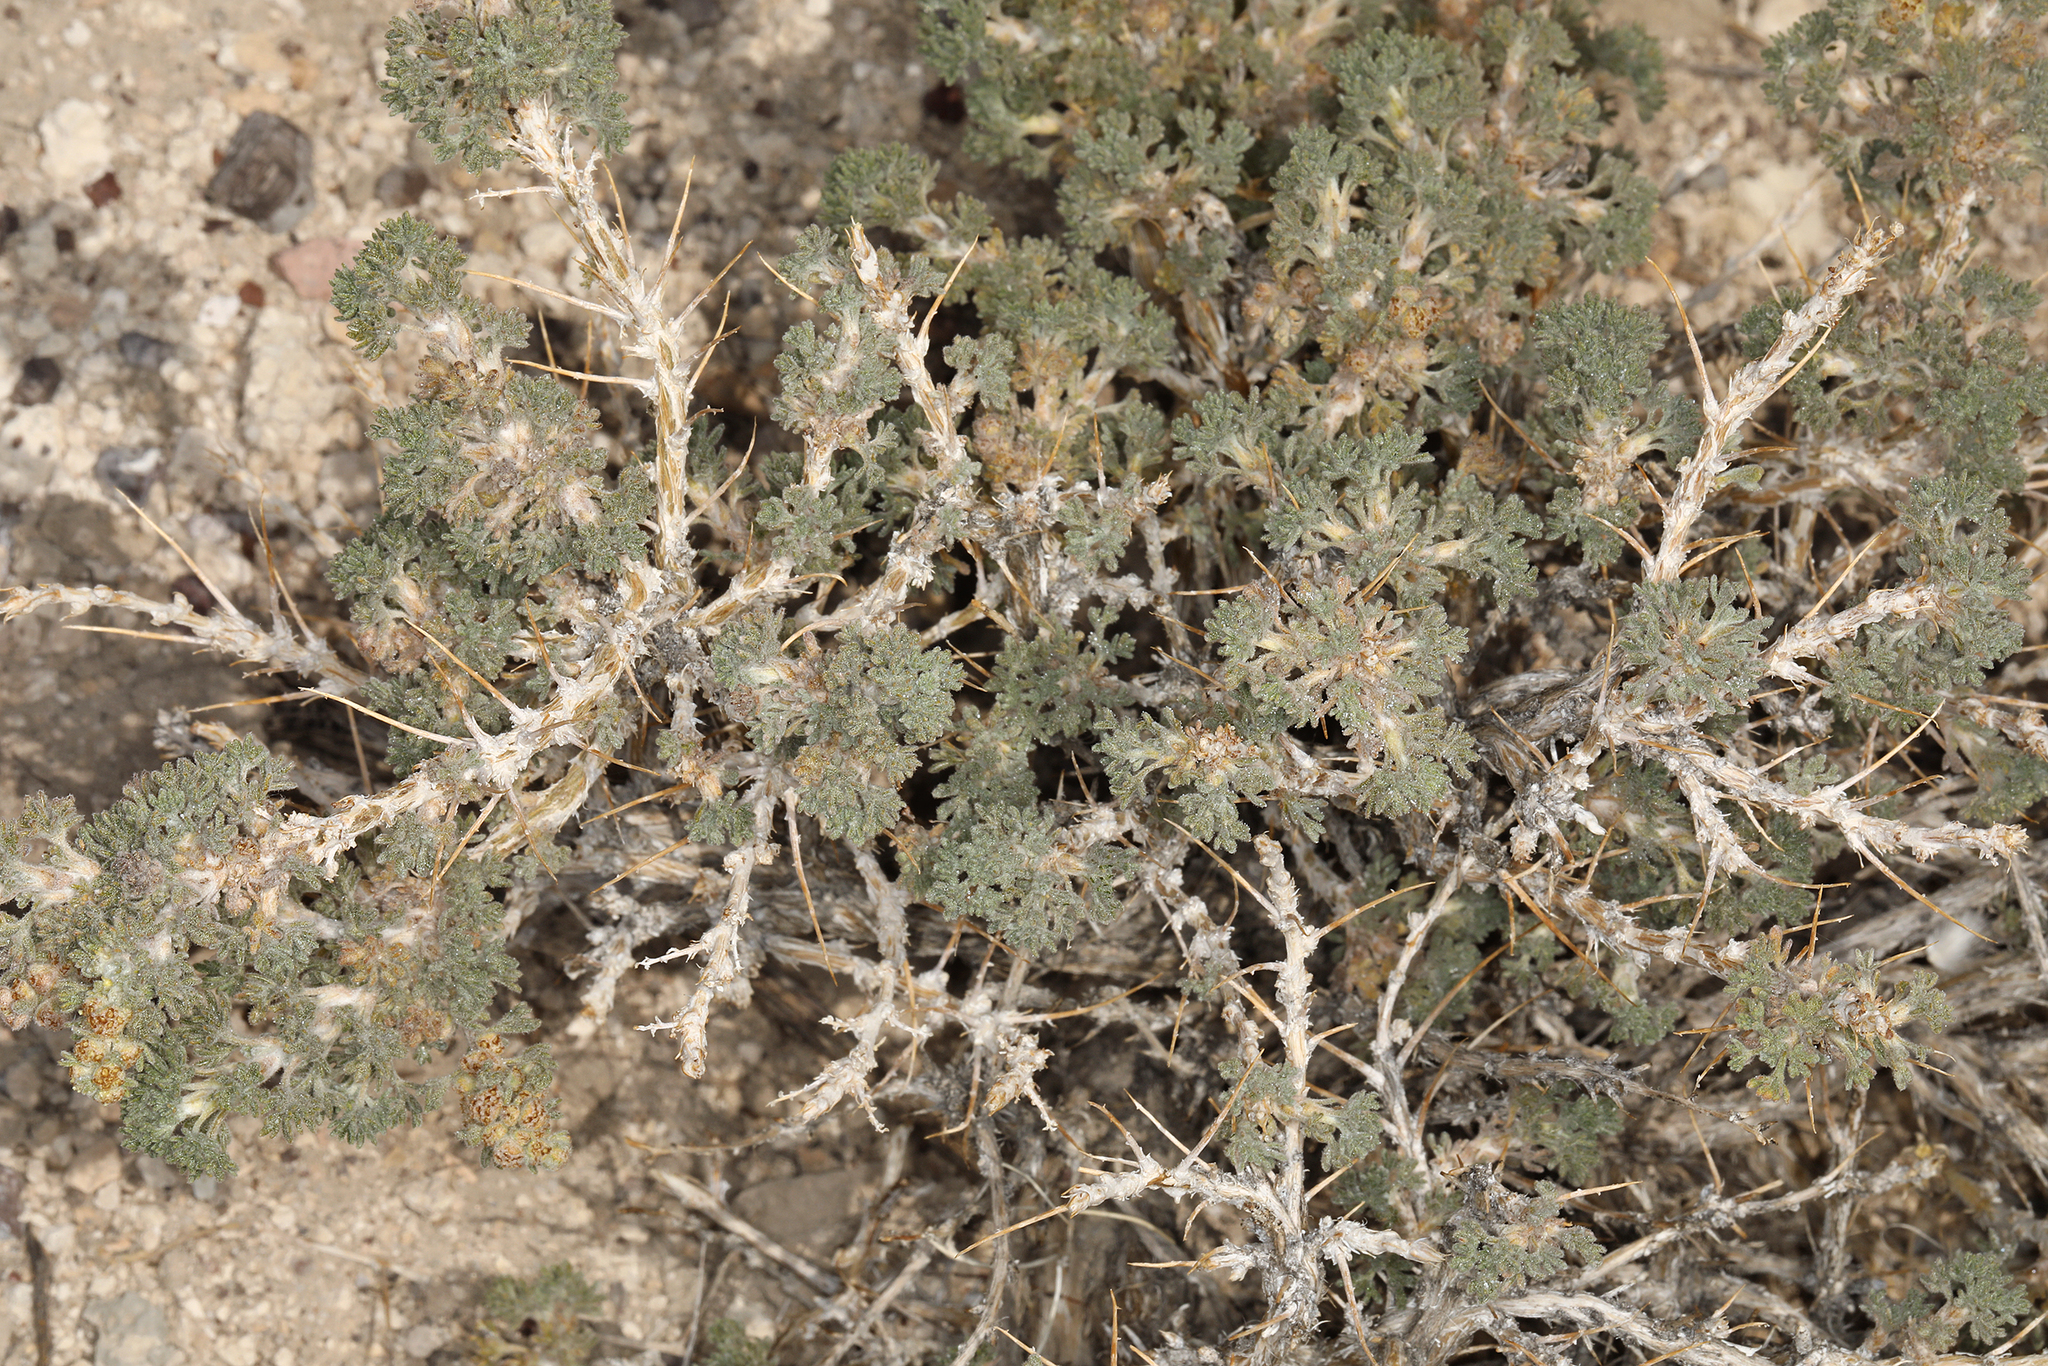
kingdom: Plantae
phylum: Tracheophyta
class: Magnoliopsida
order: Asterales
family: Asteraceae
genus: Artemisia
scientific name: Artemisia spinescens
